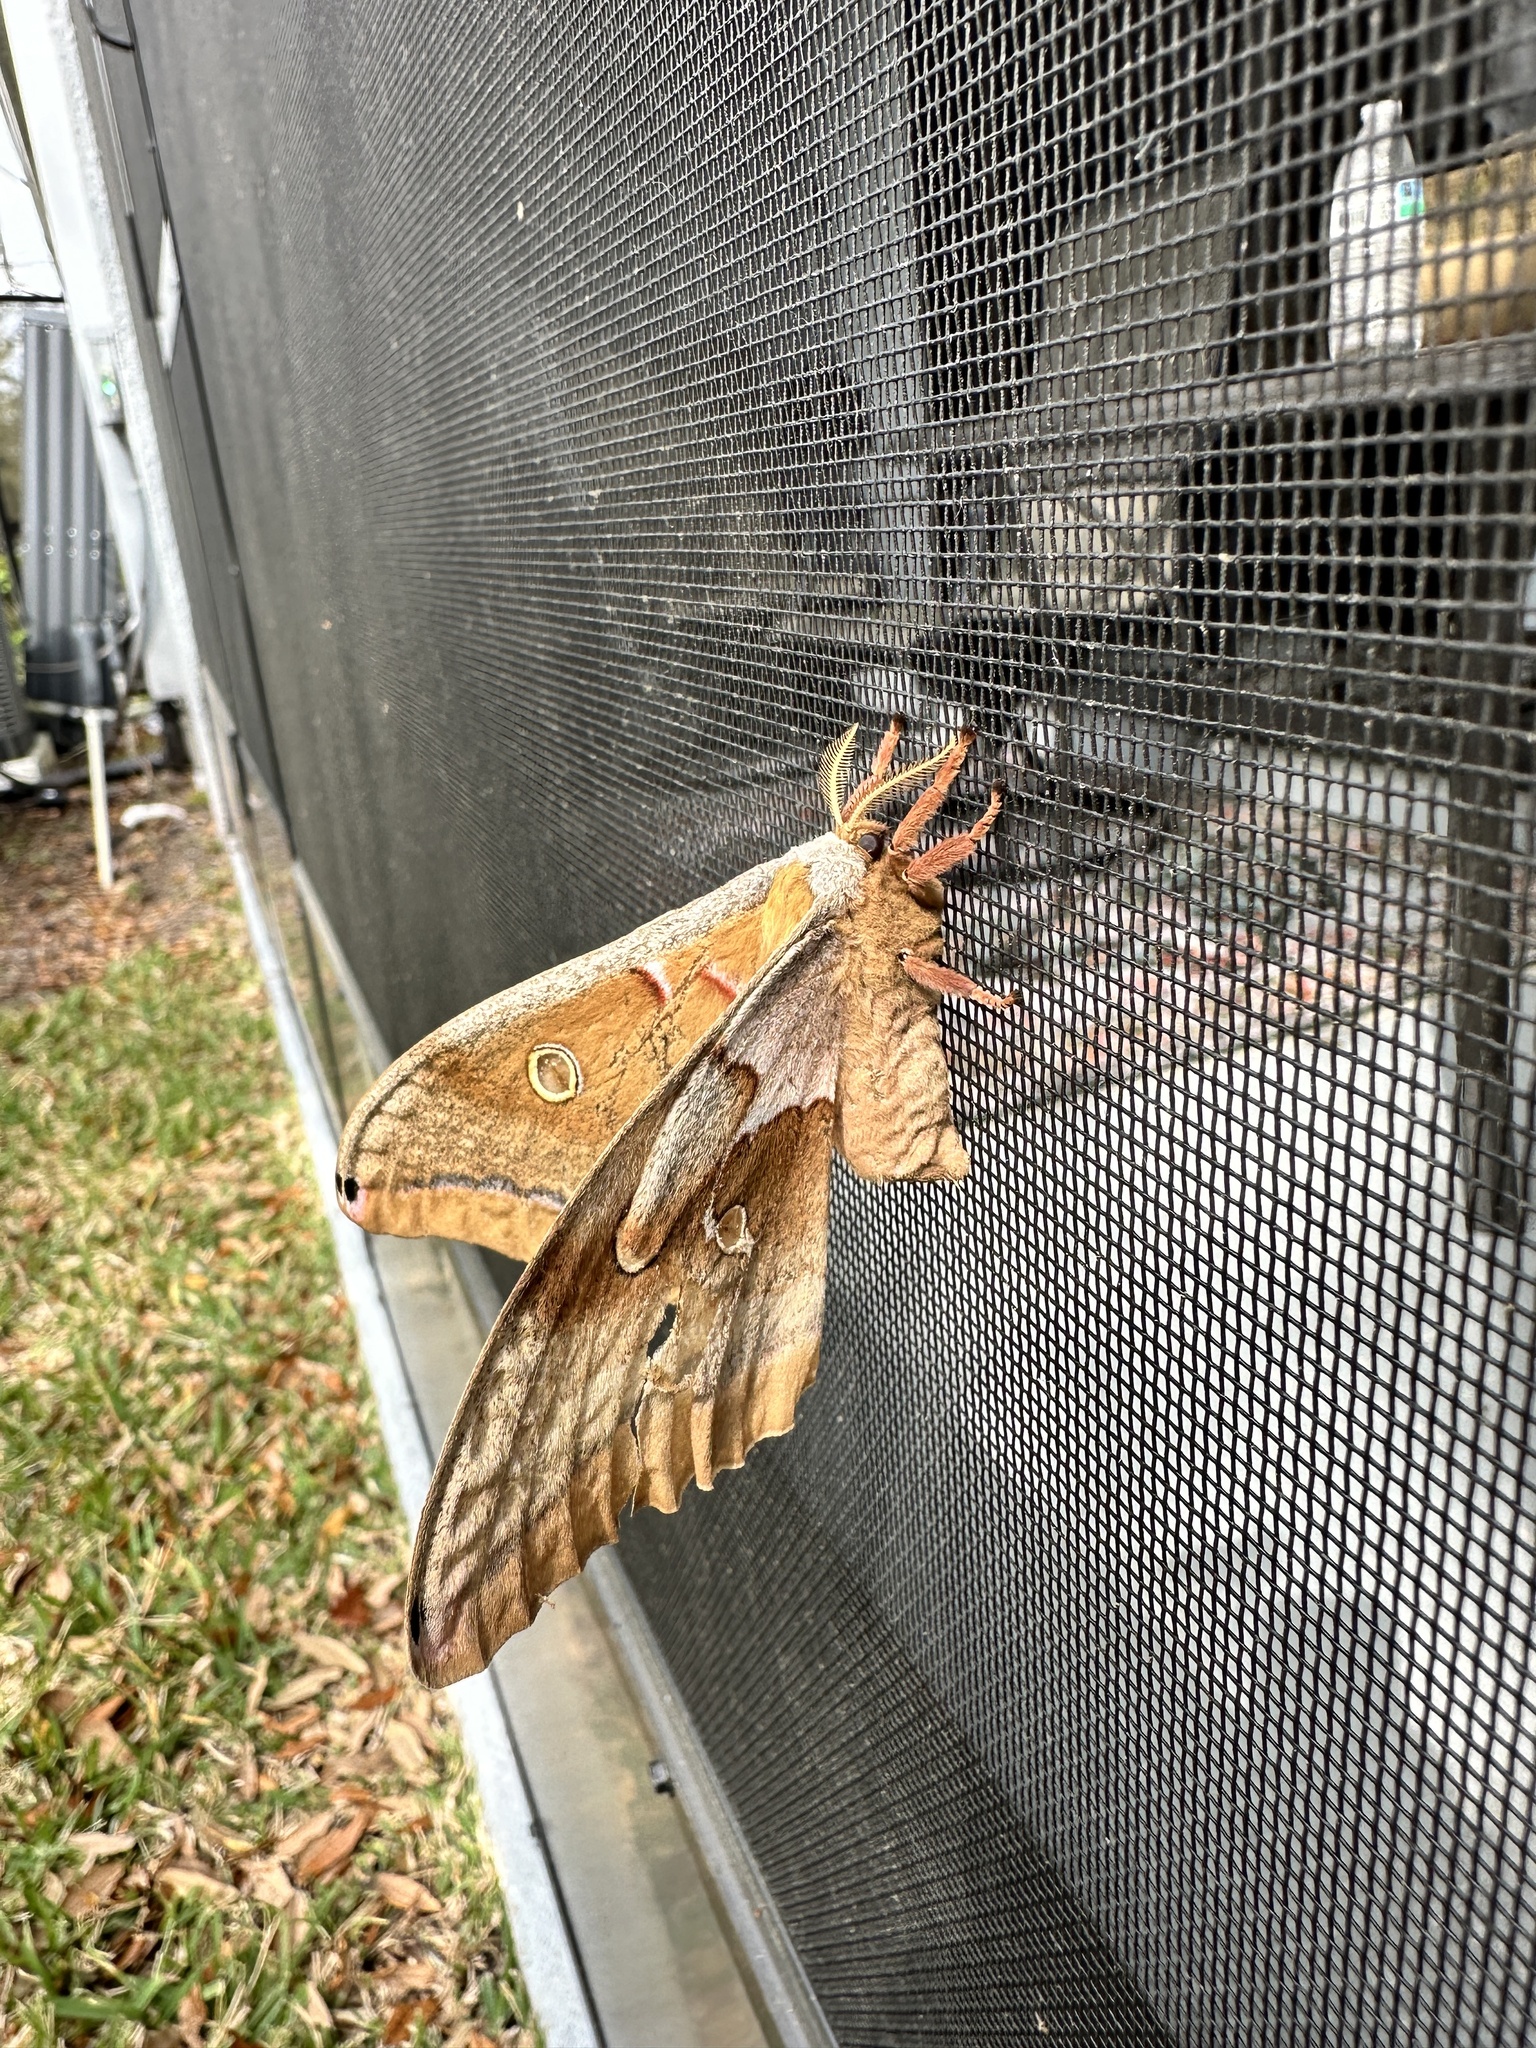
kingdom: Animalia
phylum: Arthropoda
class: Insecta
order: Lepidoptera
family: Saturniidae
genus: Antheraea
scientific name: Antheraea polyphemus
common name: Polyphemus moth
